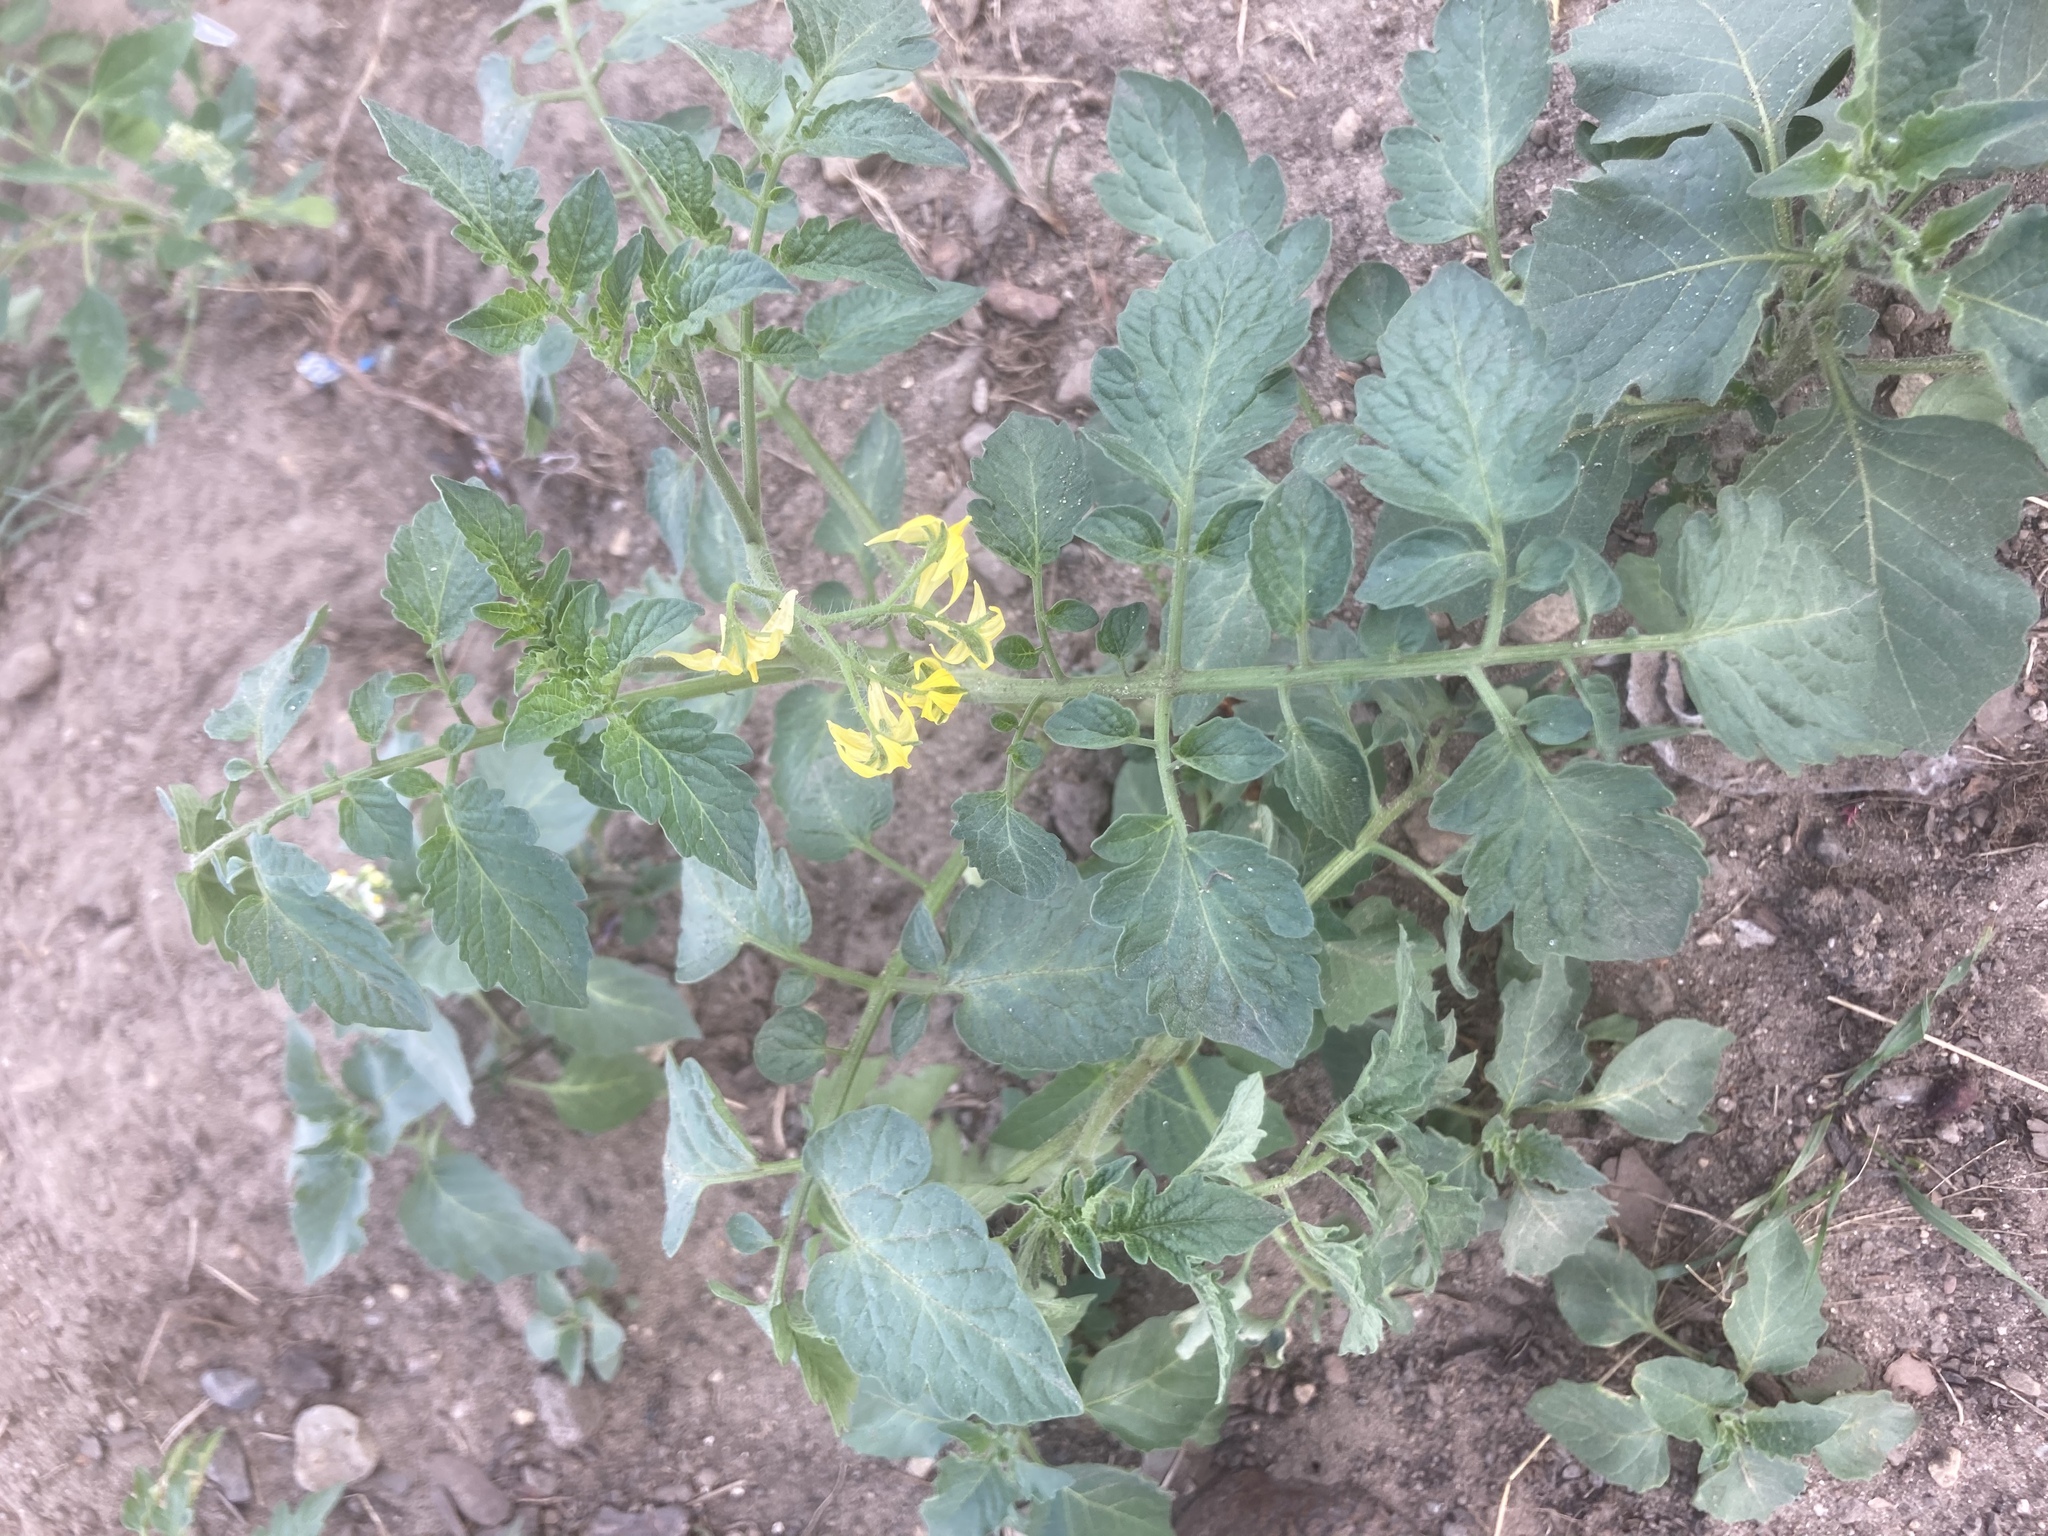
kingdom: Plantae
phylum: Tracheophyta
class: Magnoliopsida
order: Solanales
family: Solanaceae
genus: Solanum
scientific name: Solanum lycopersicum
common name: Garden tomato
